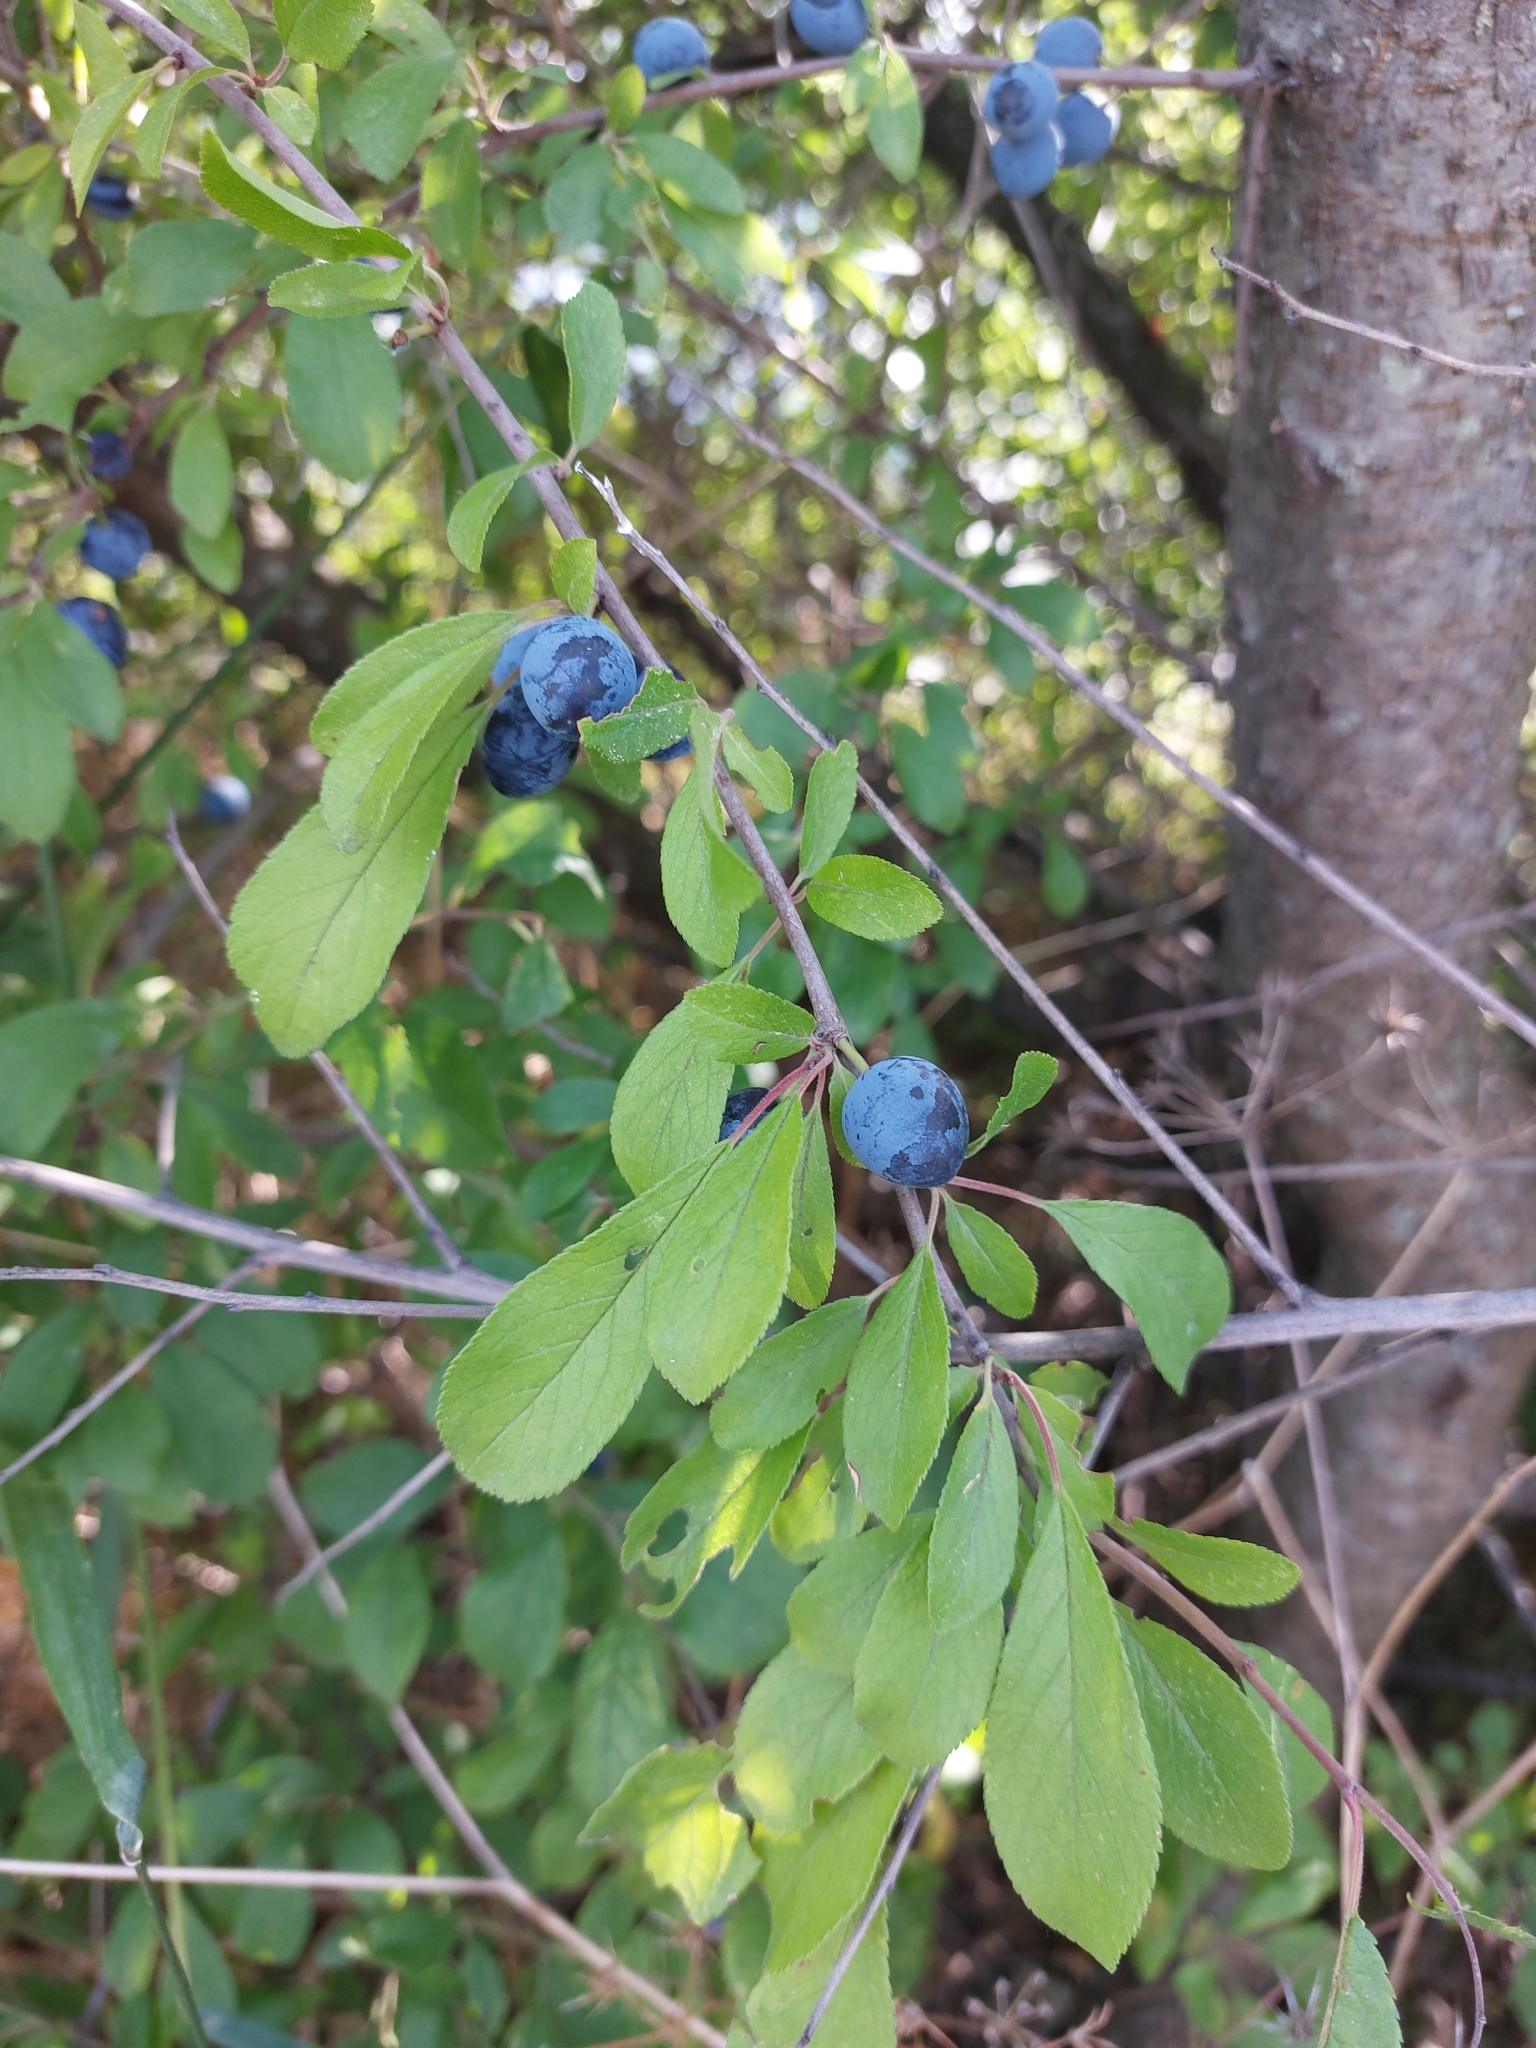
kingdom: Plantae
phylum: Tracheophyta
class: Magnoliopsida
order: Rosales
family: Rosaceae
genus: Prunus
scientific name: Prunus spinosa
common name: Blackthorn
